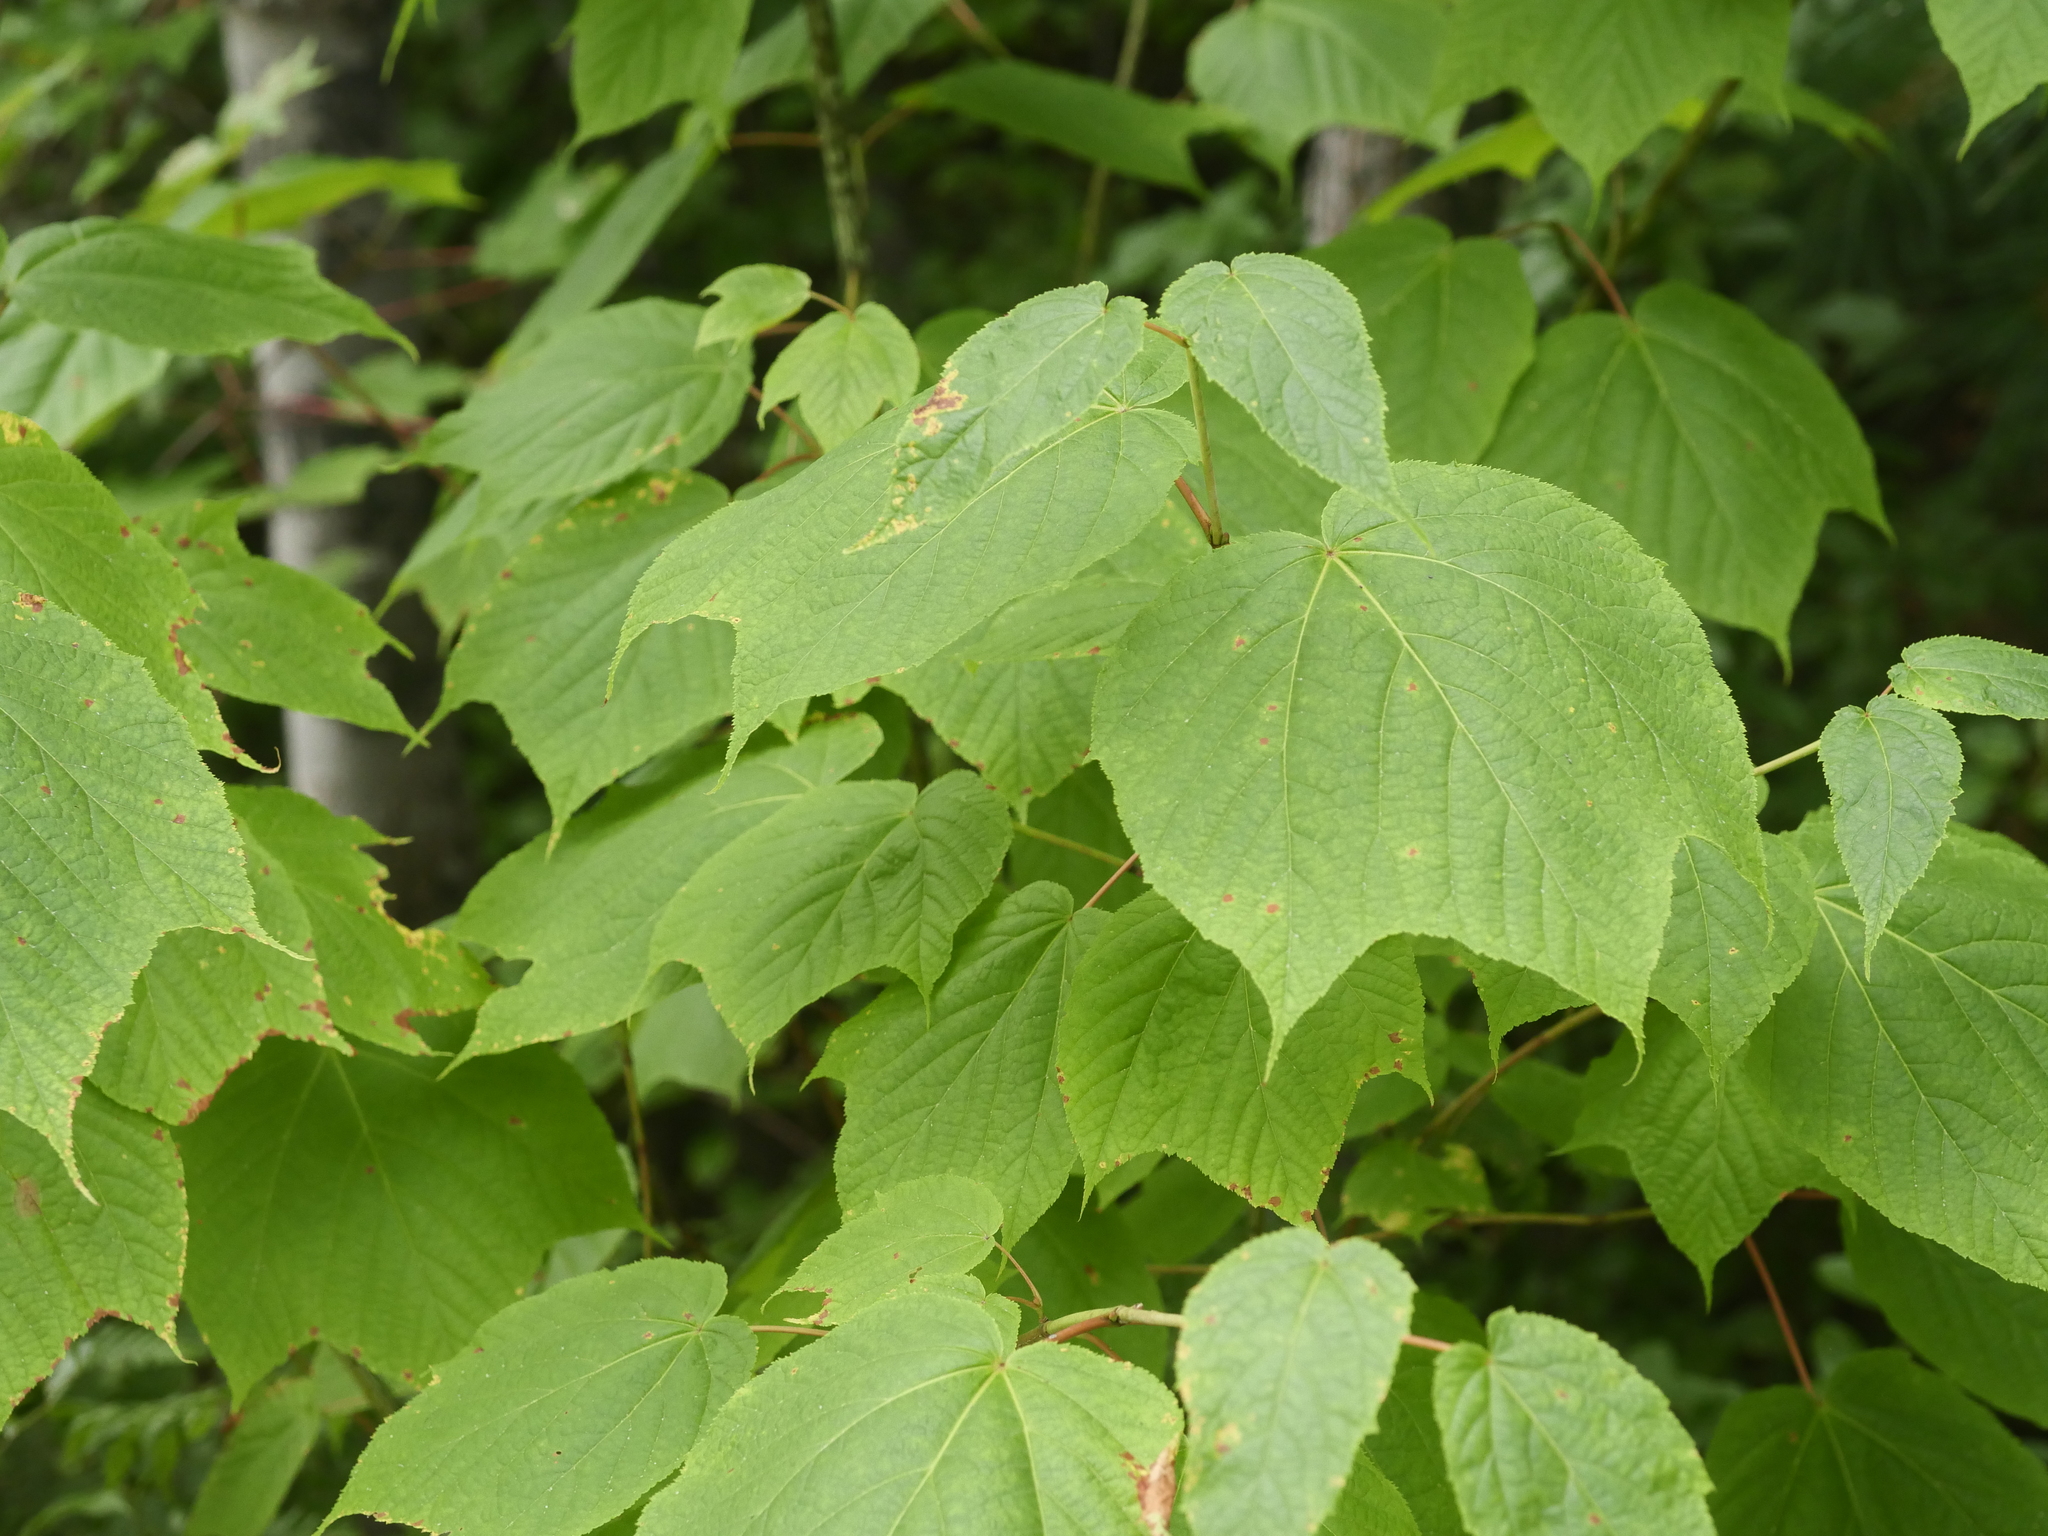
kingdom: Plantae
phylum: Tracheophyta
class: Magnoliopsida
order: Sapindales
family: Sapindaceae
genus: Acer
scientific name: Acer pensylvanicum
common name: Moosewood
